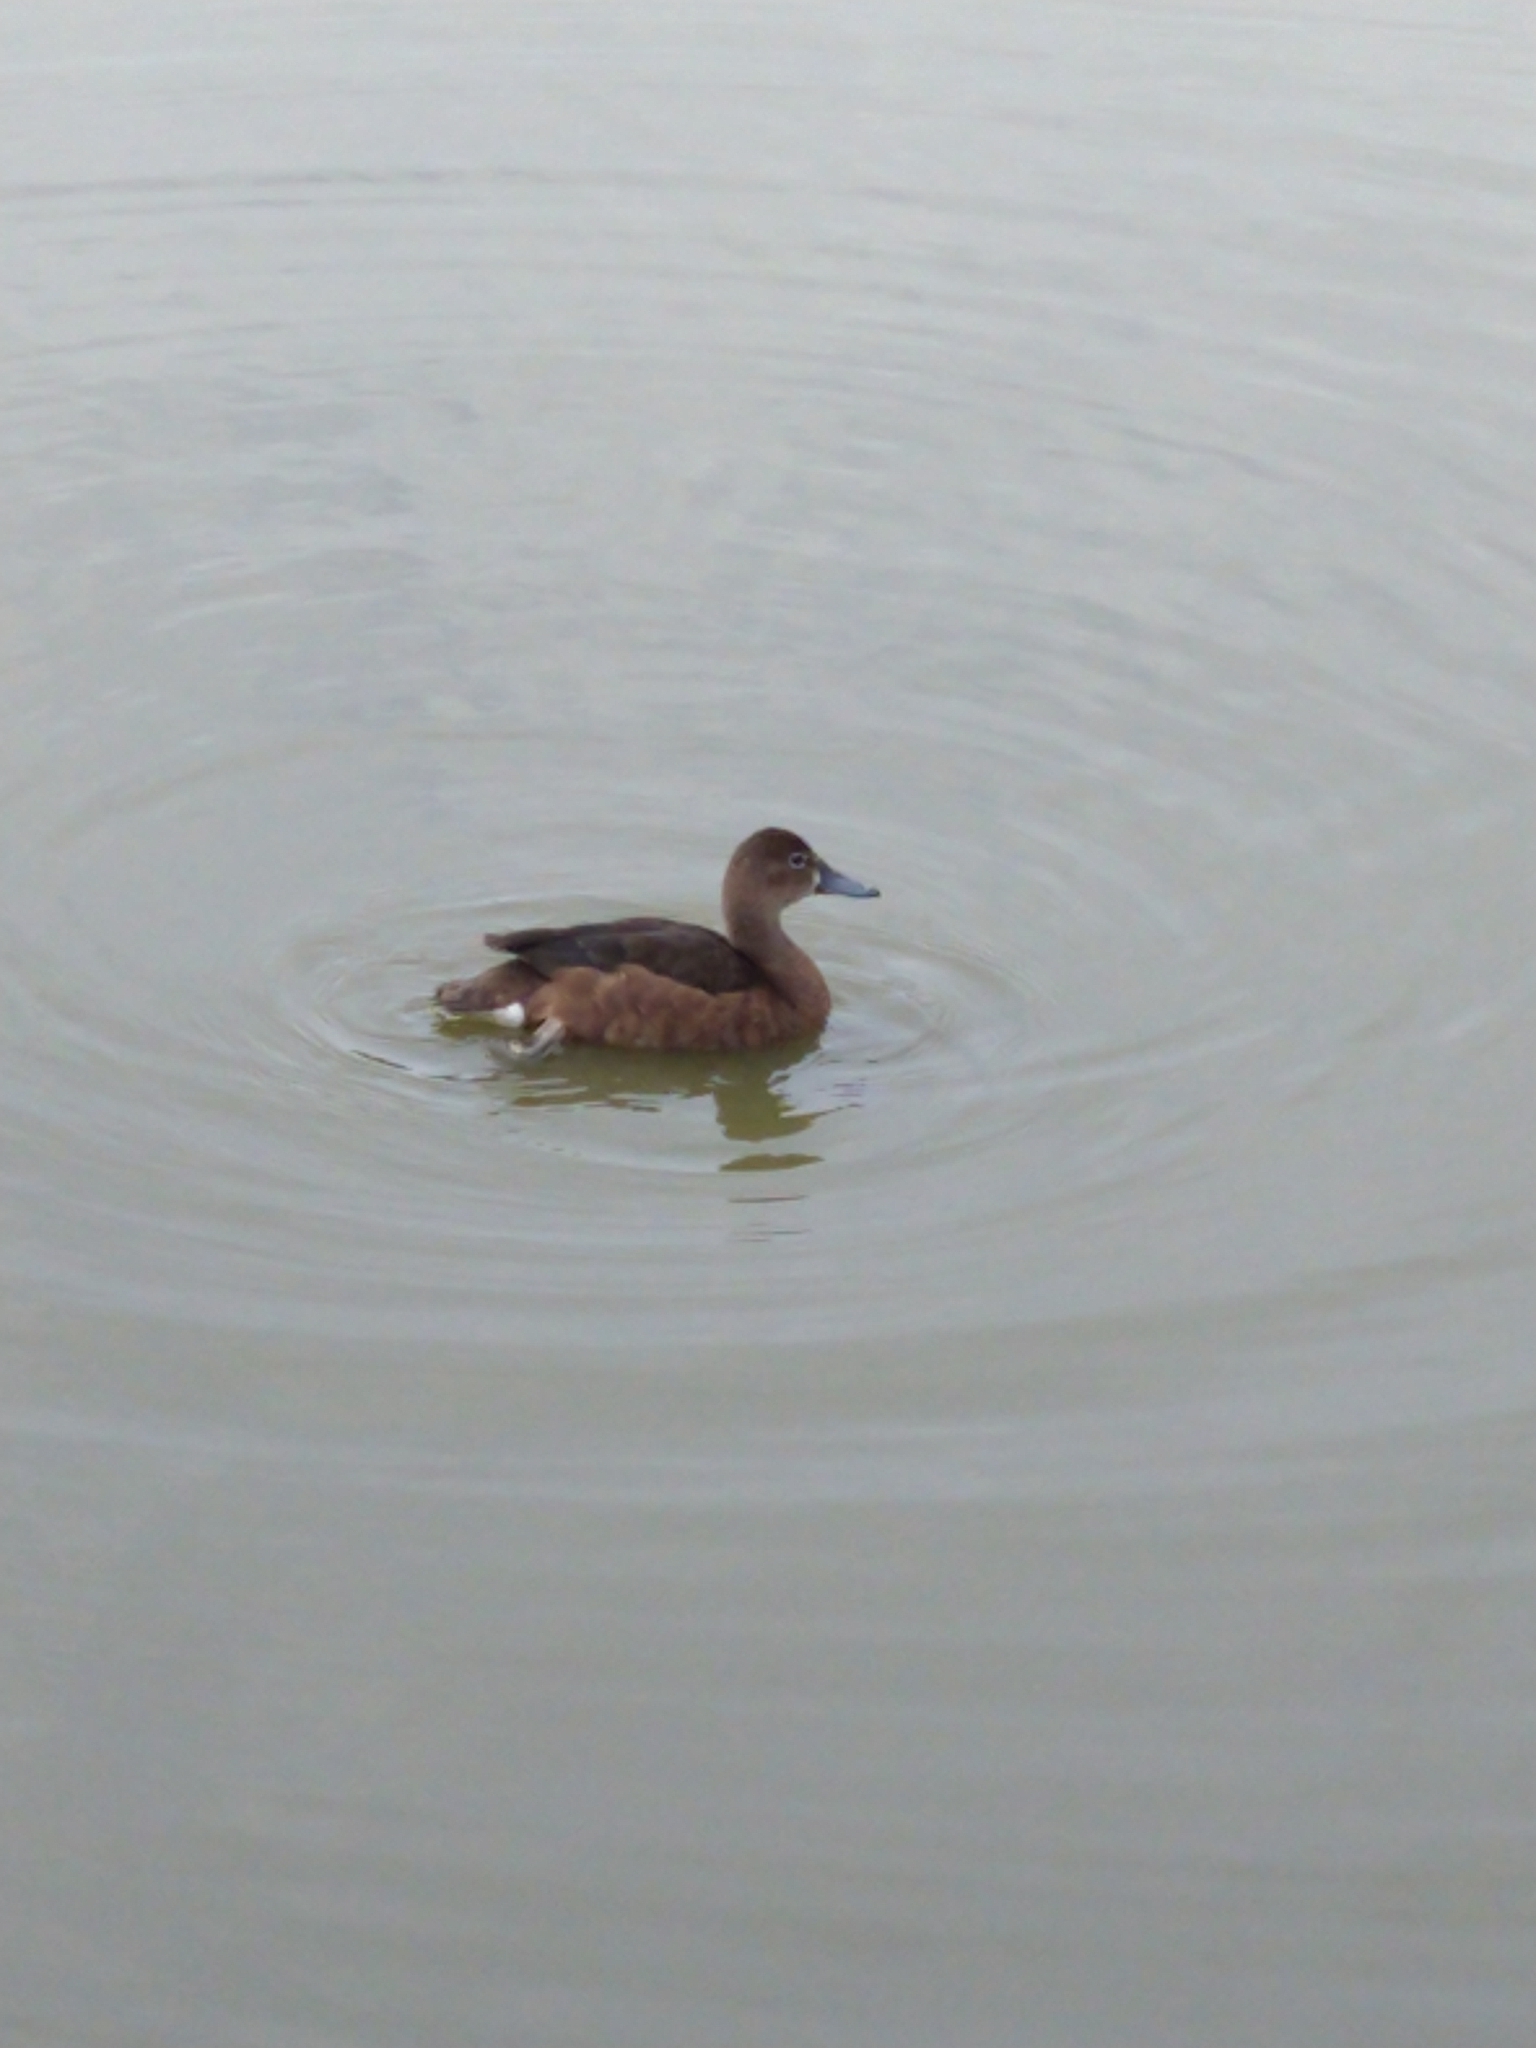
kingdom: Animalia
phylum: Chordata
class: Aves
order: Anseriformes
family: Anatidae
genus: Netta
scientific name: Netta peposaca
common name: Rosy-billed pochard
